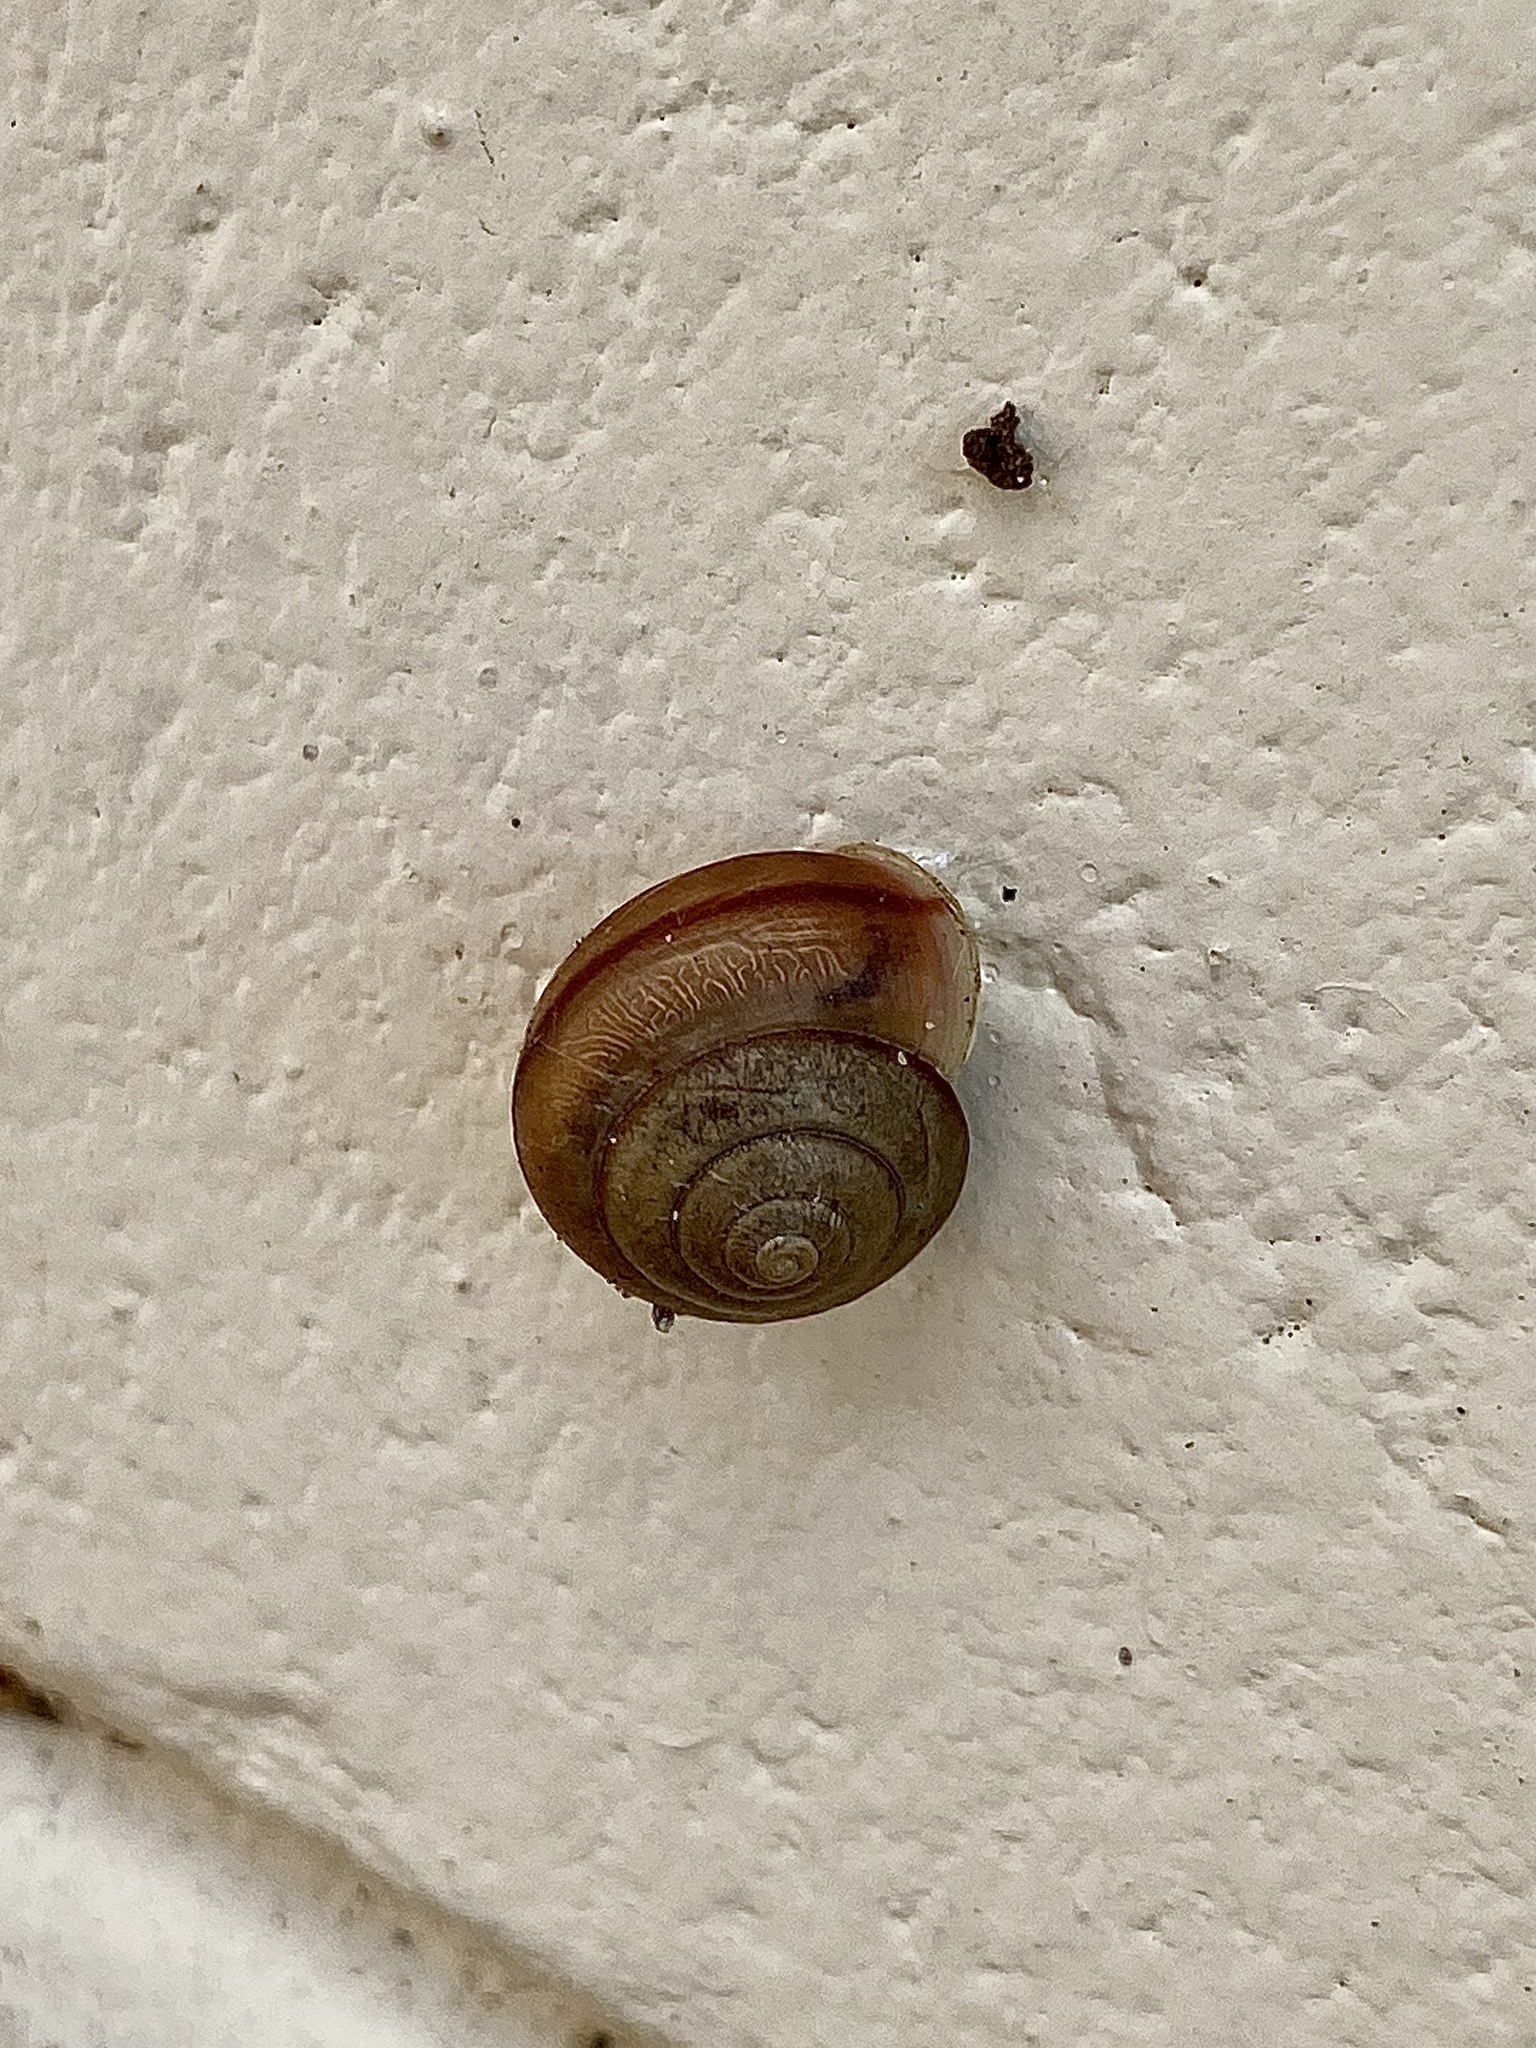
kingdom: Animalia
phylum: Mollusca
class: Gastropoda
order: Stylommatophora
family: Camaenidae
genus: Bradybaena
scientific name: Bradybaena similaris
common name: Asian trampsnail
